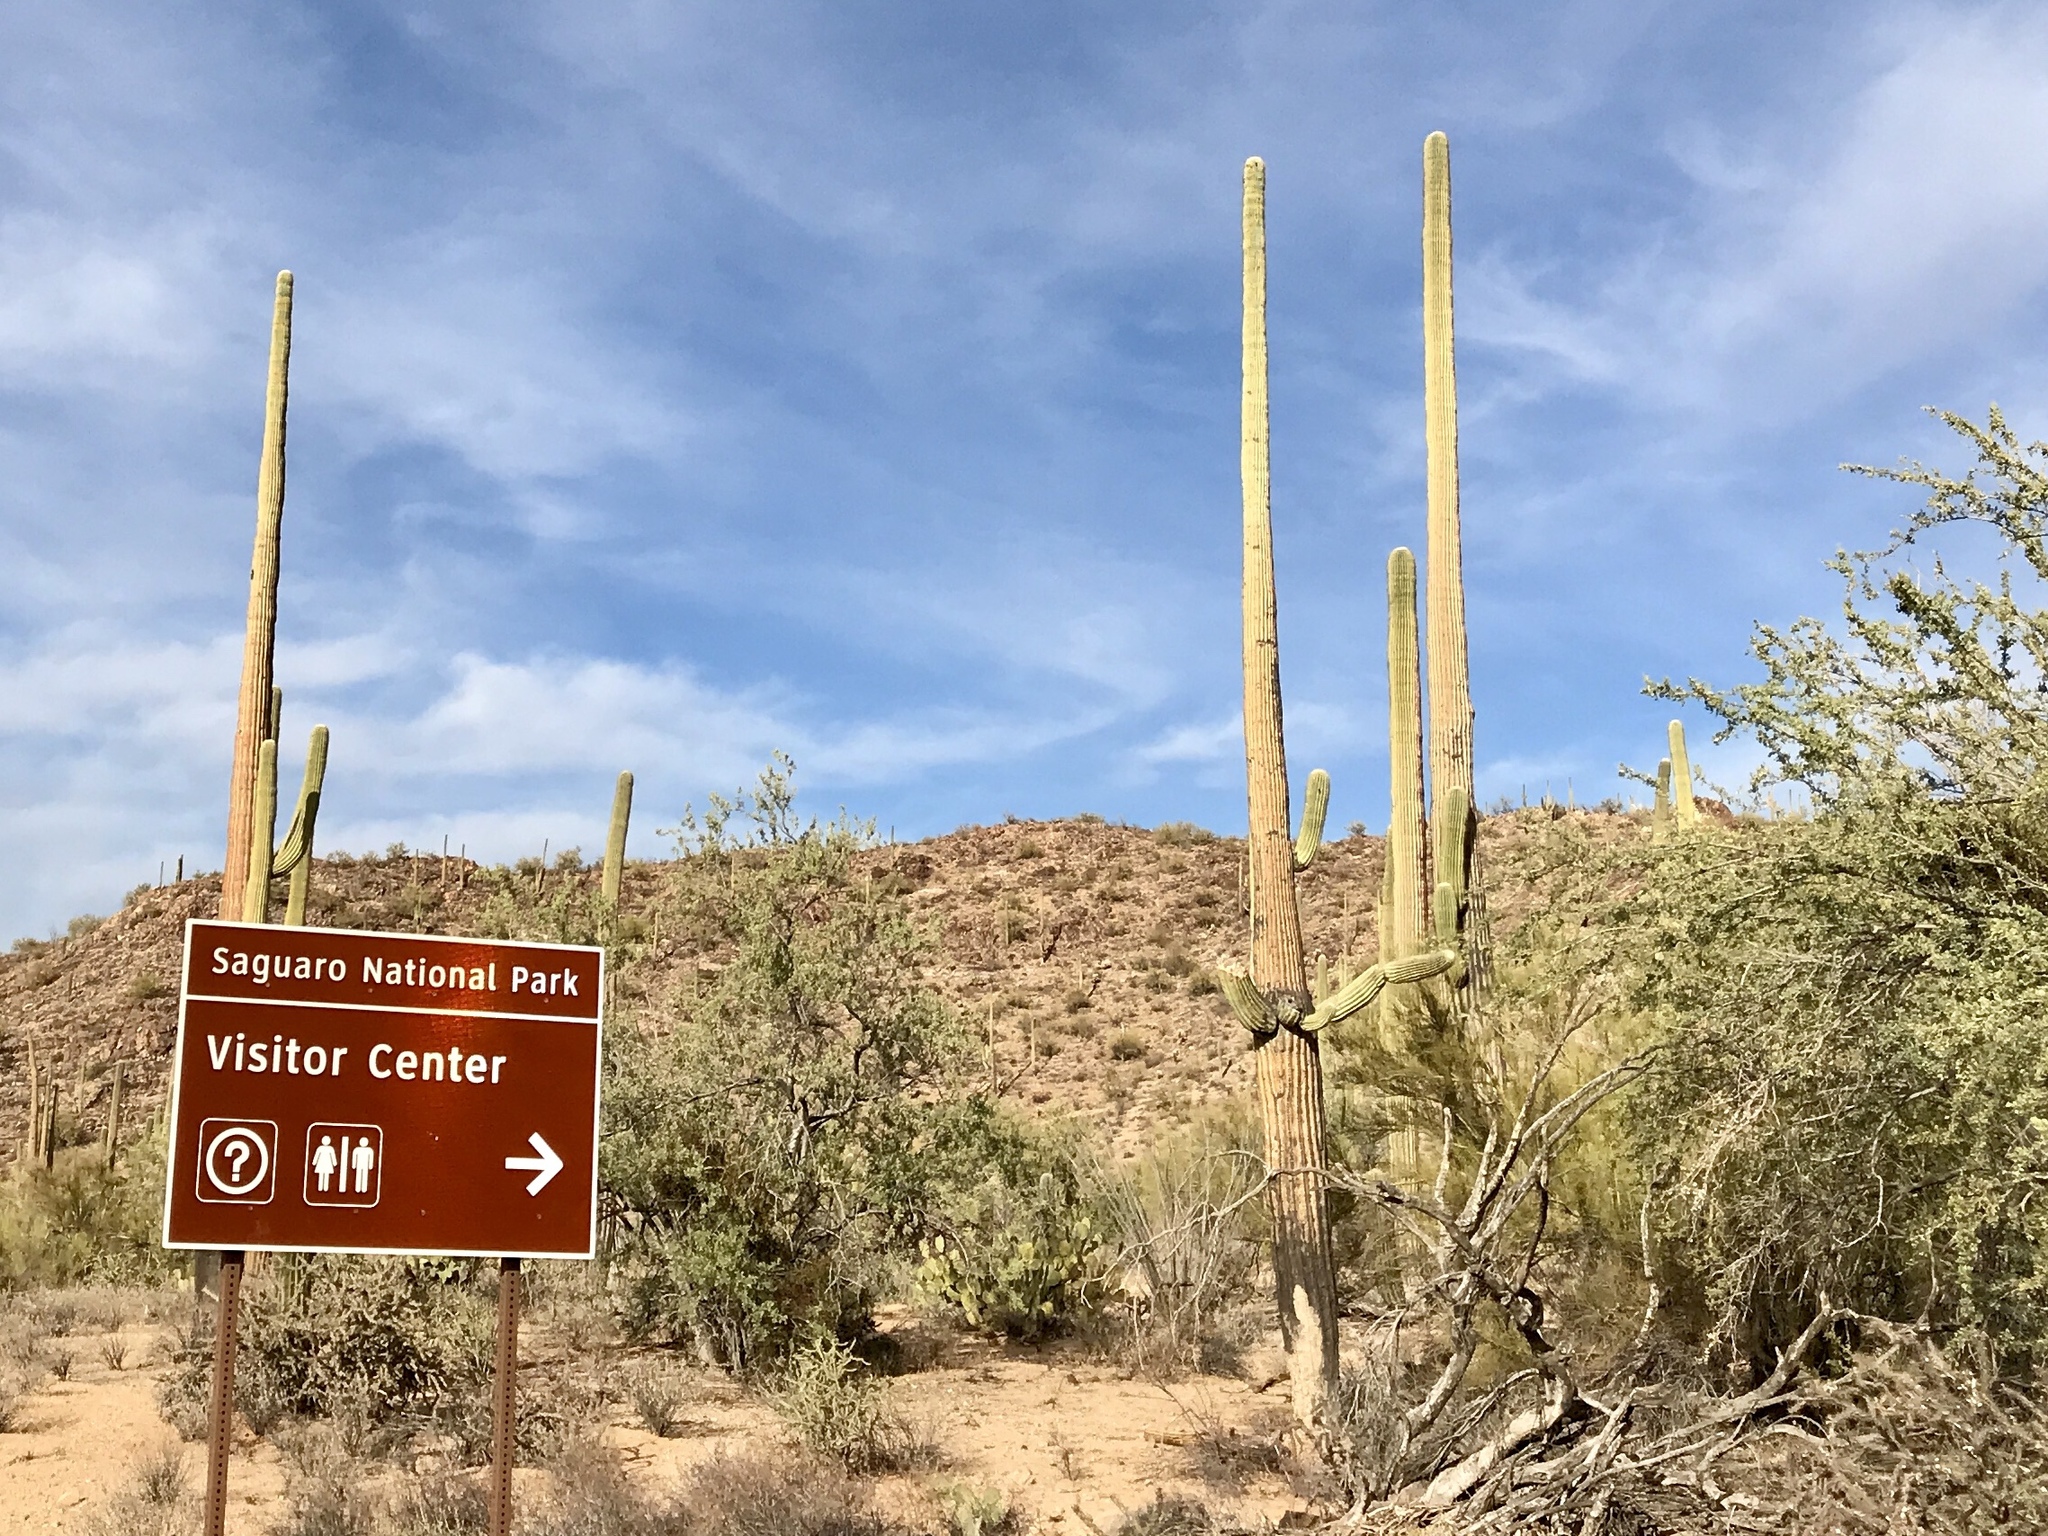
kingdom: Plantae
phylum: Tracheophyta
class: Magnoliopsida
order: Caryophyllales
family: Cactaceae
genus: Carnegiea
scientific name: Carnegiea gigantea
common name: Saguaro
